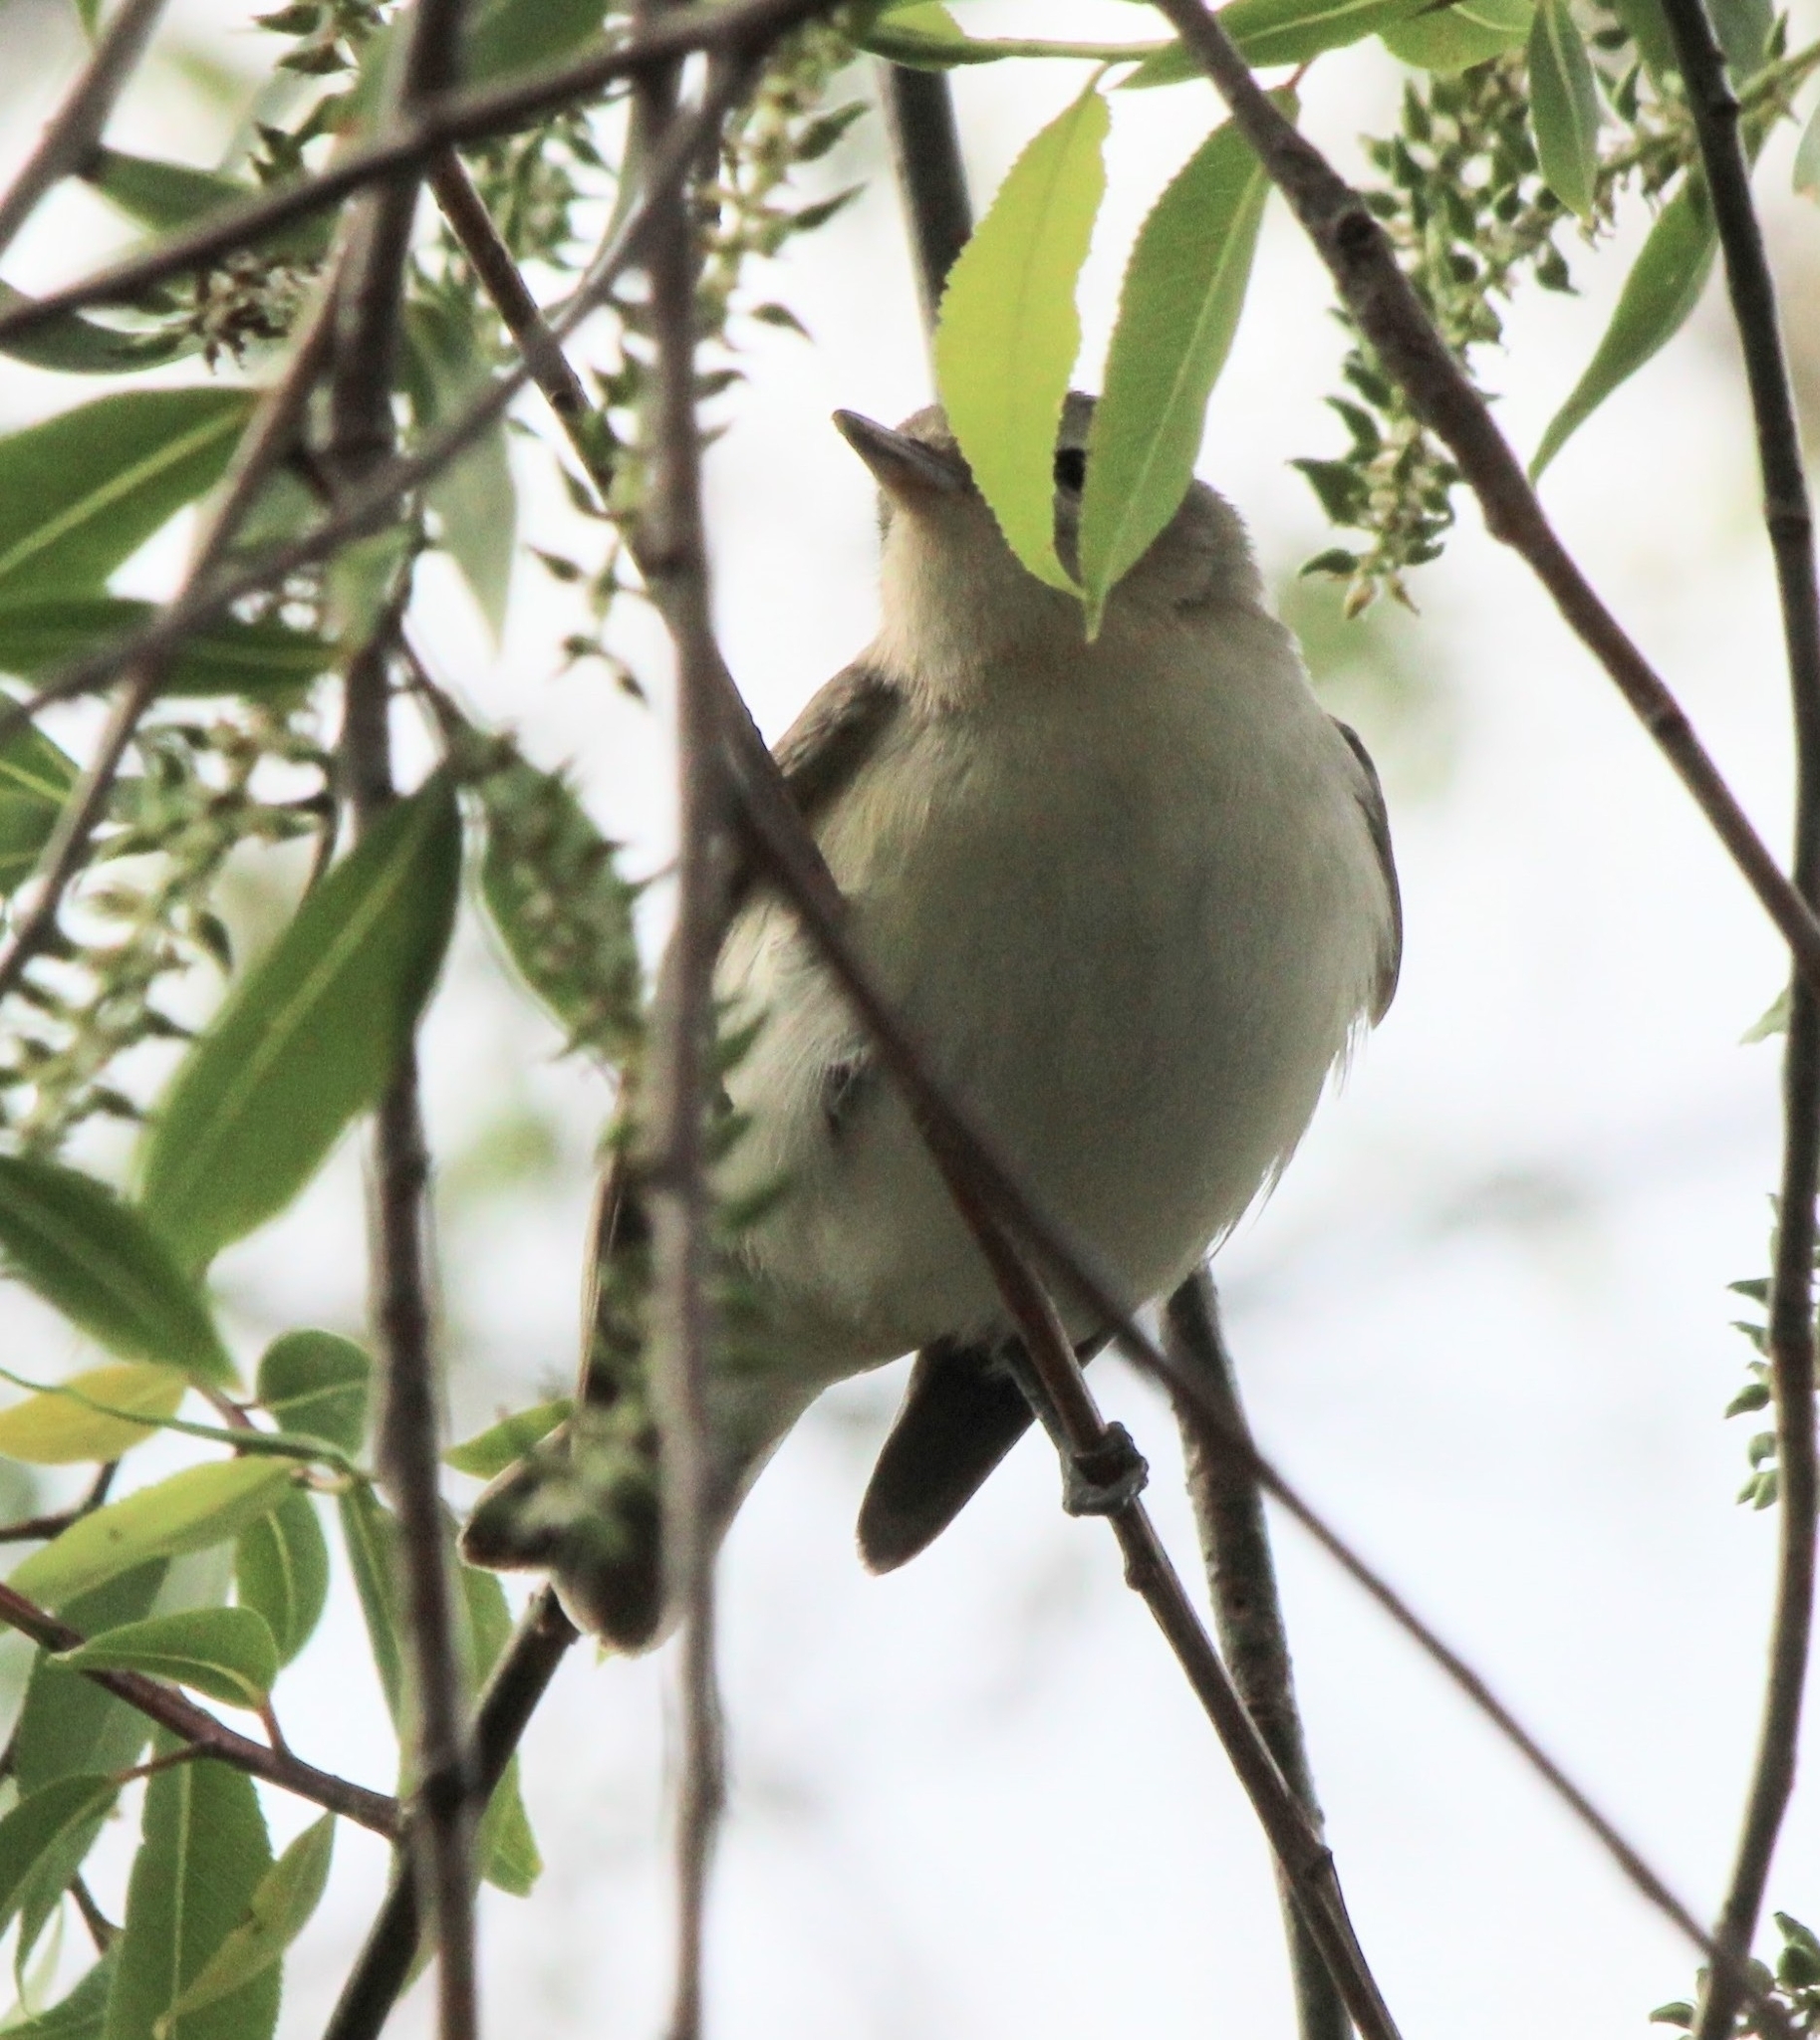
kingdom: Animalia
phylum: Chordata
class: Aves
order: Passeriformes
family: Vireonidae
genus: Vireo
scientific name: Vireo gilvus
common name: Warbling vireo
